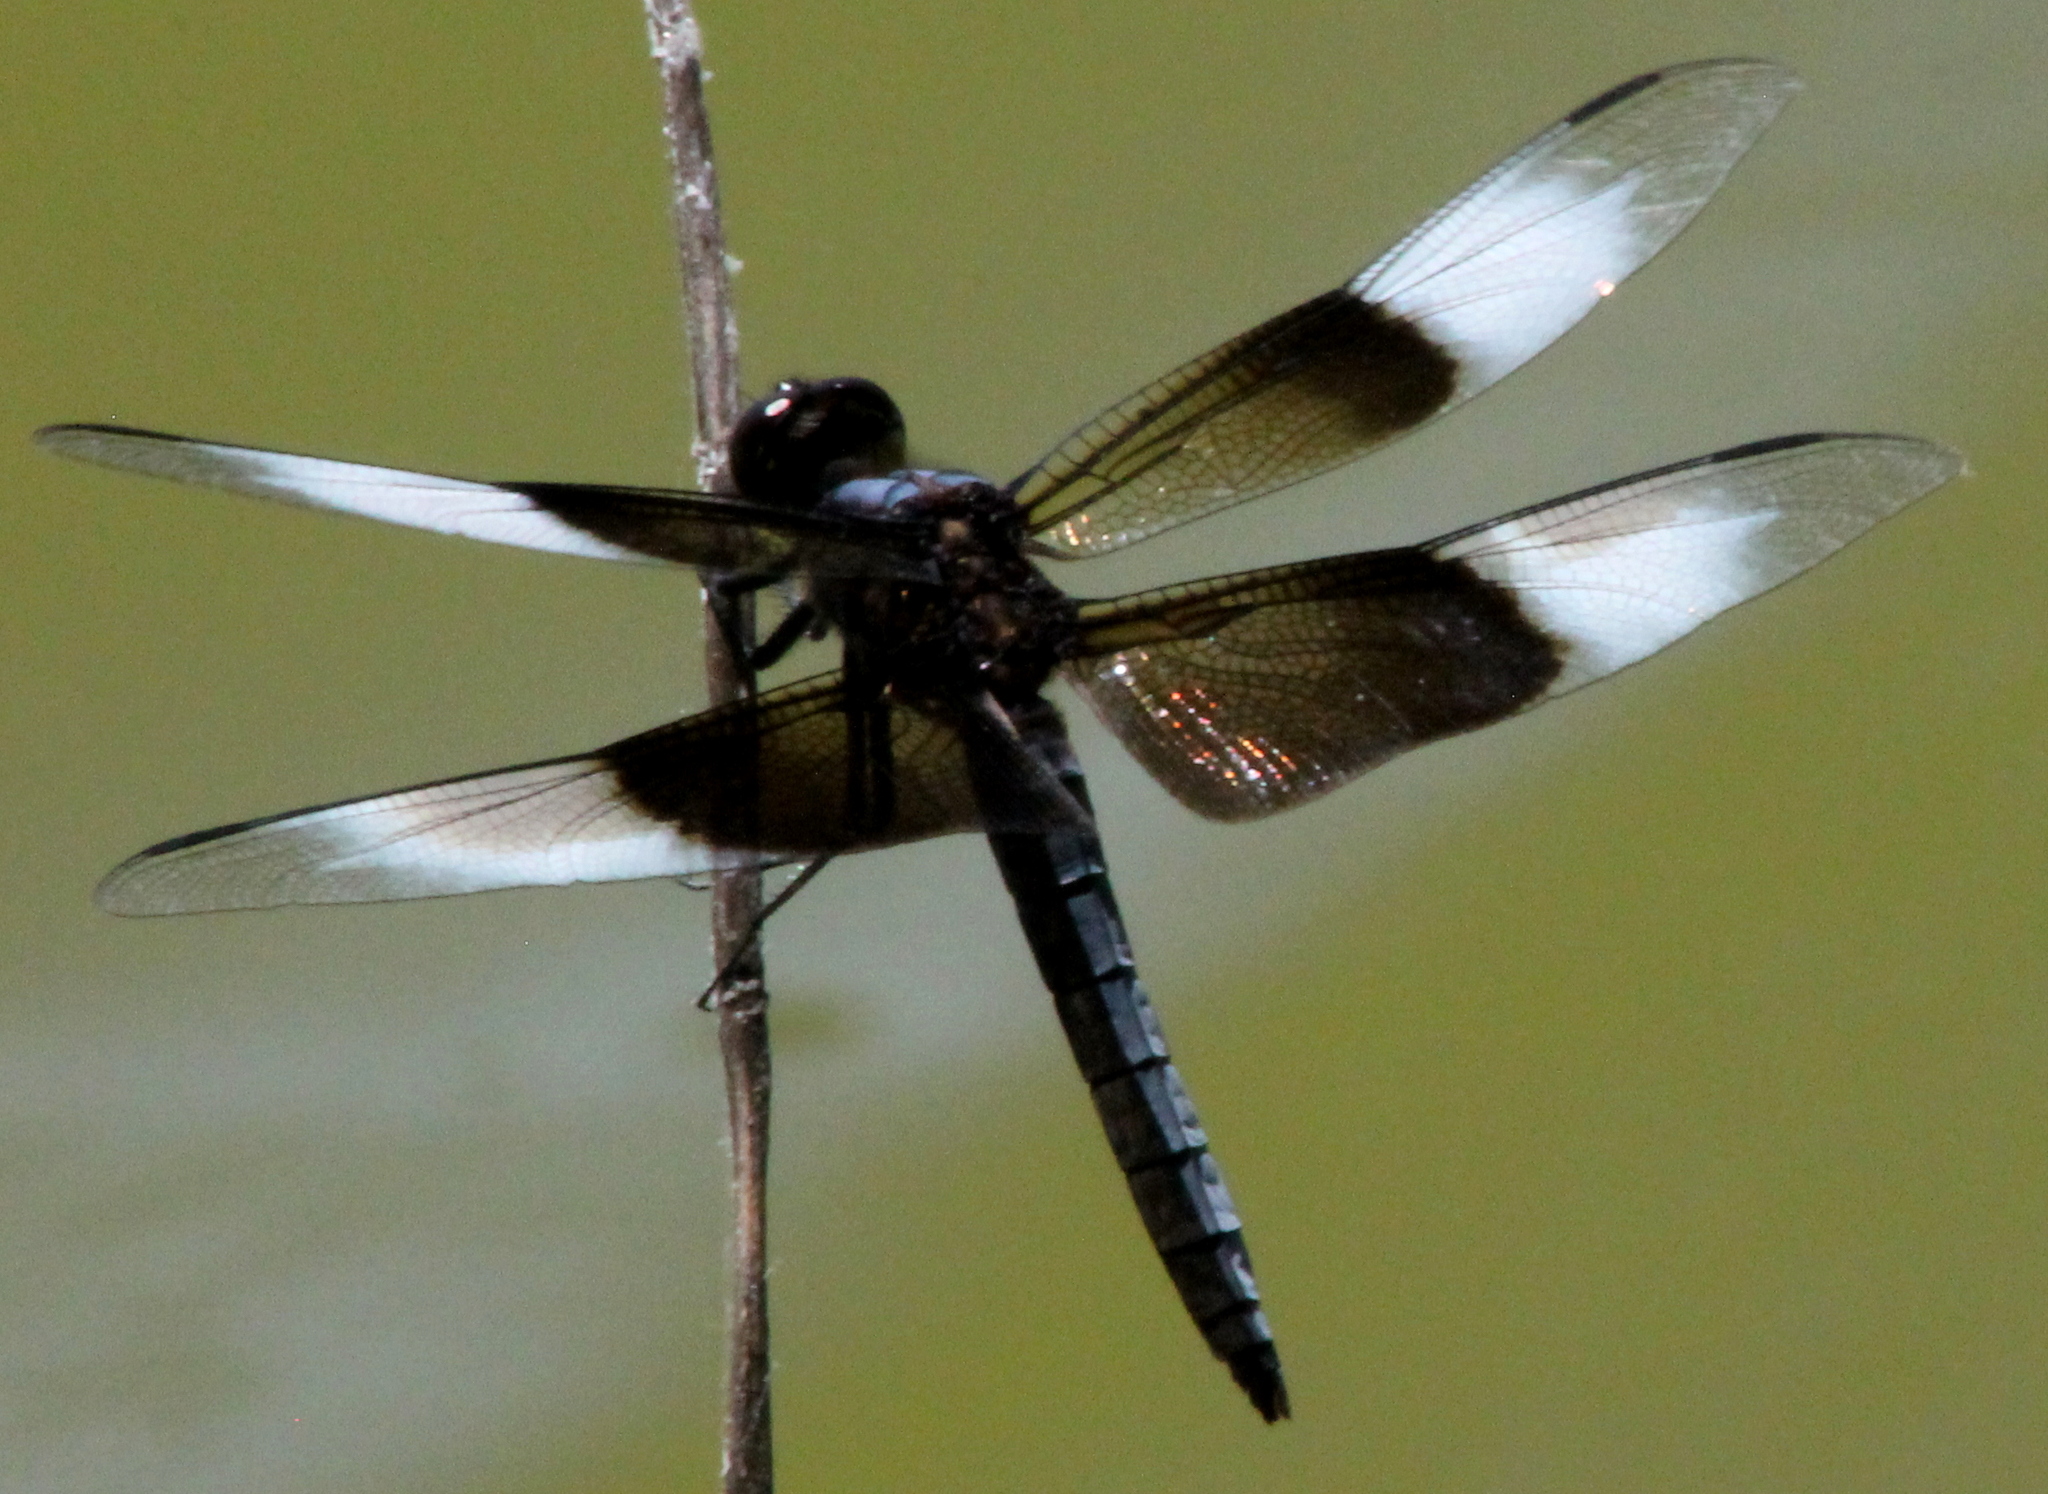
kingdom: Animalia
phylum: Arthropoda
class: Insecta
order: Odonata
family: Libellulidae
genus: Libellula
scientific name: Libellula luctuosa
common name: Widow skimmer
